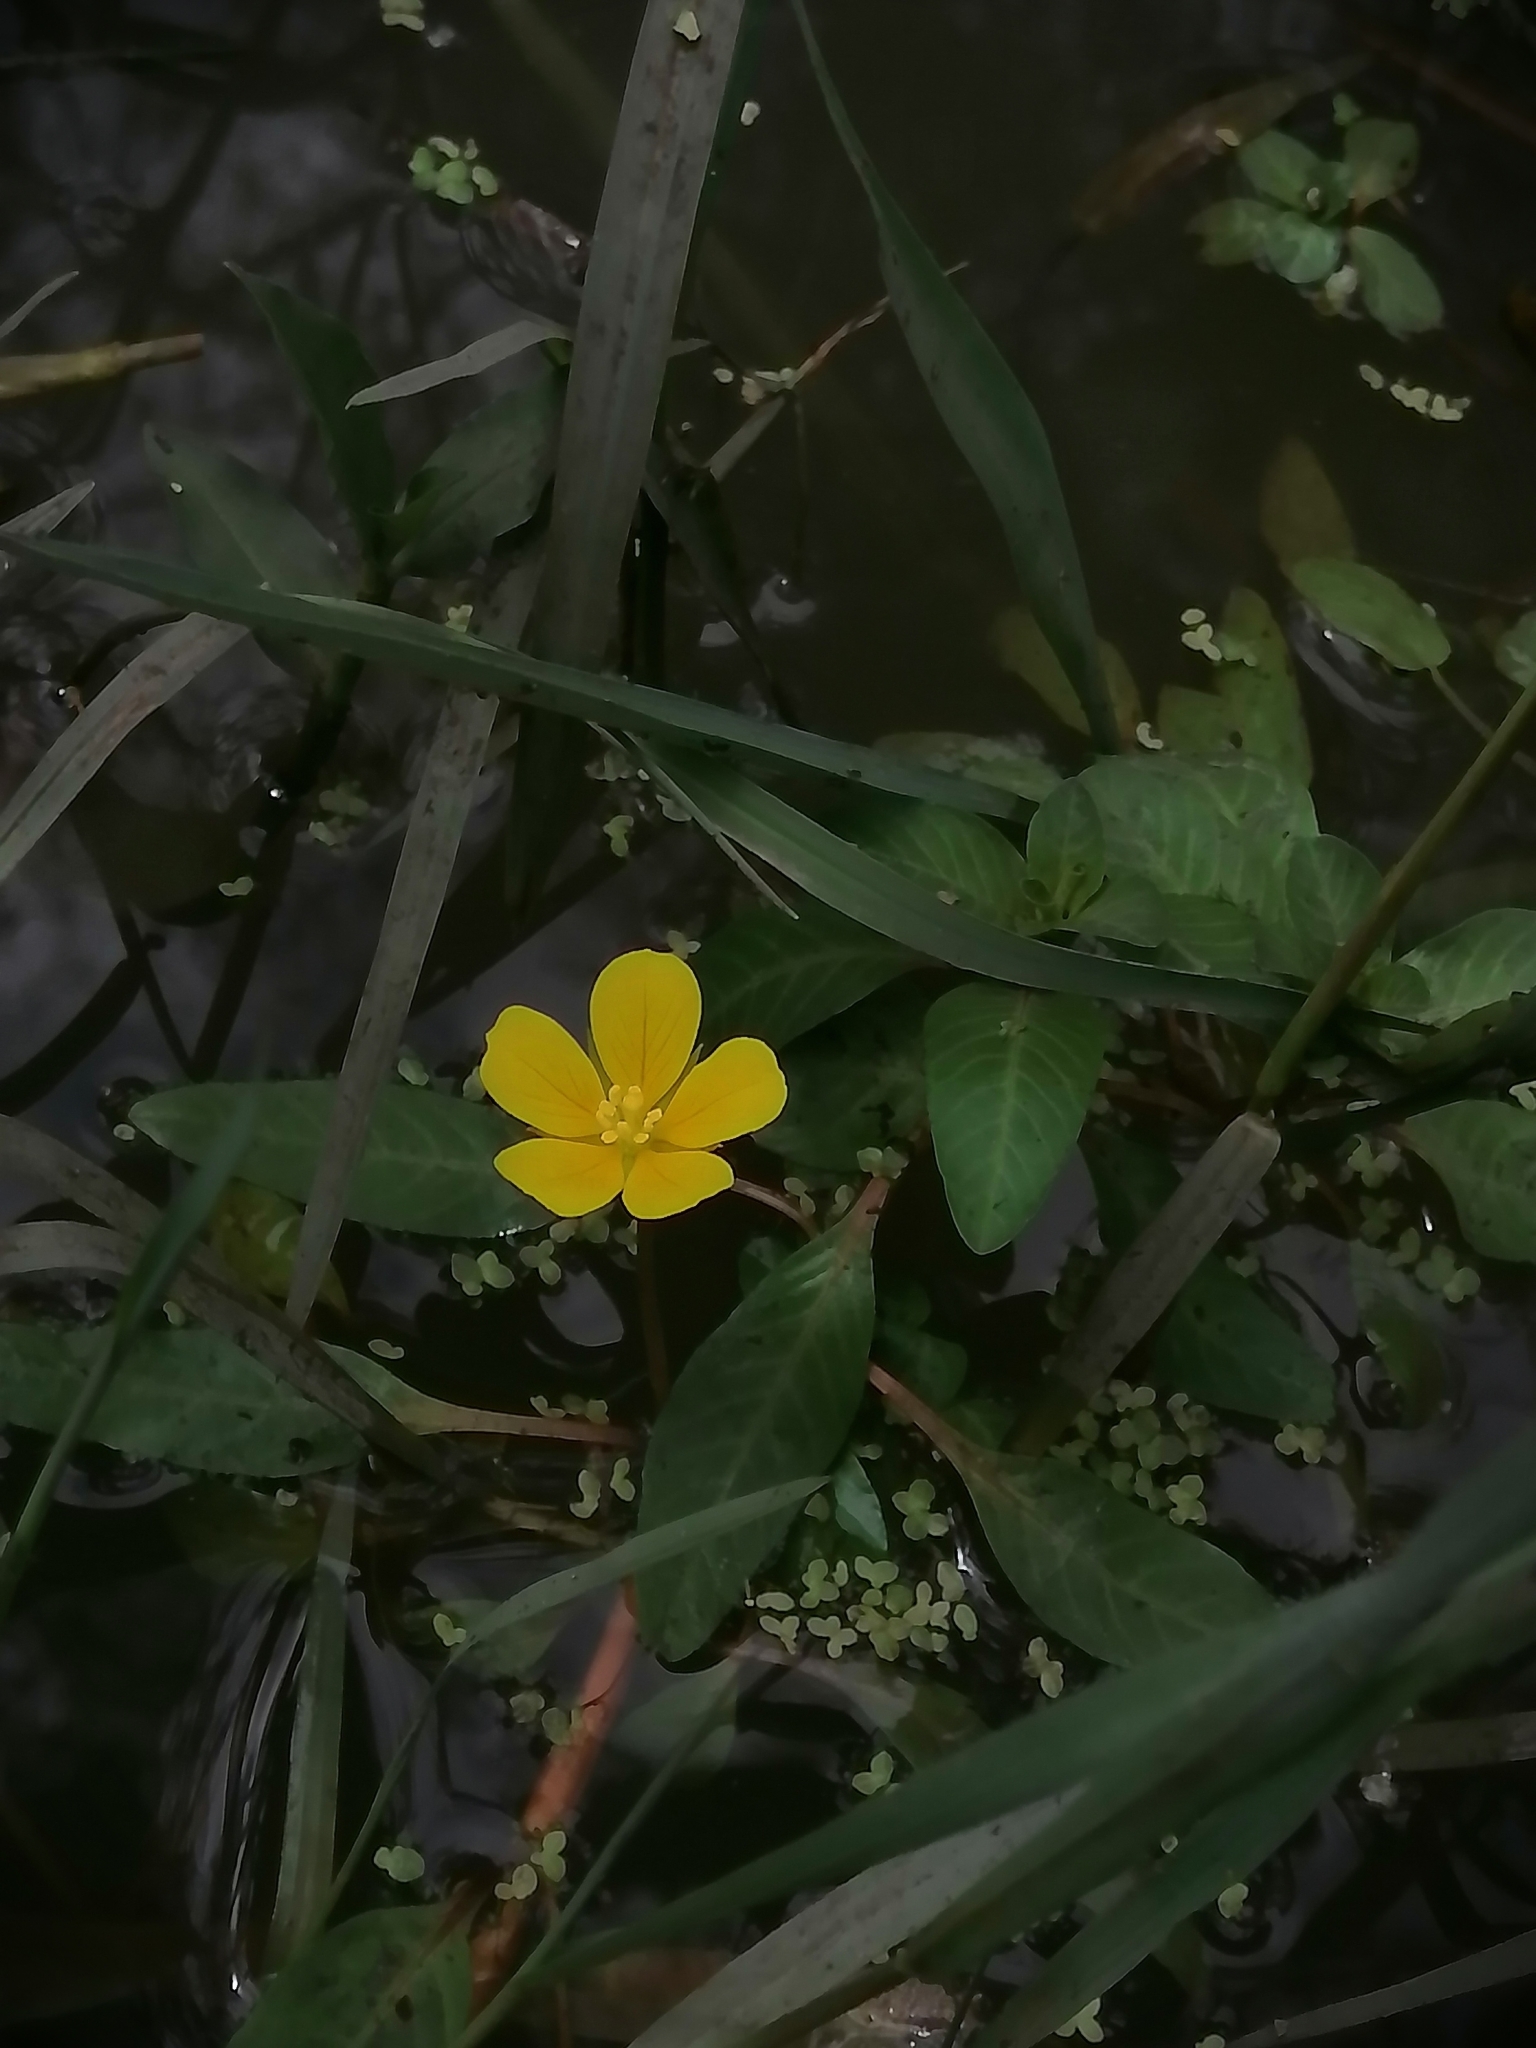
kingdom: Plantae
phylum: Tracheophyta
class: Magnoliopsida
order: Myrtales
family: Onagraceae
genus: Ludwigia
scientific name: Ludwigia peploides
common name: Floating primrose-willow
